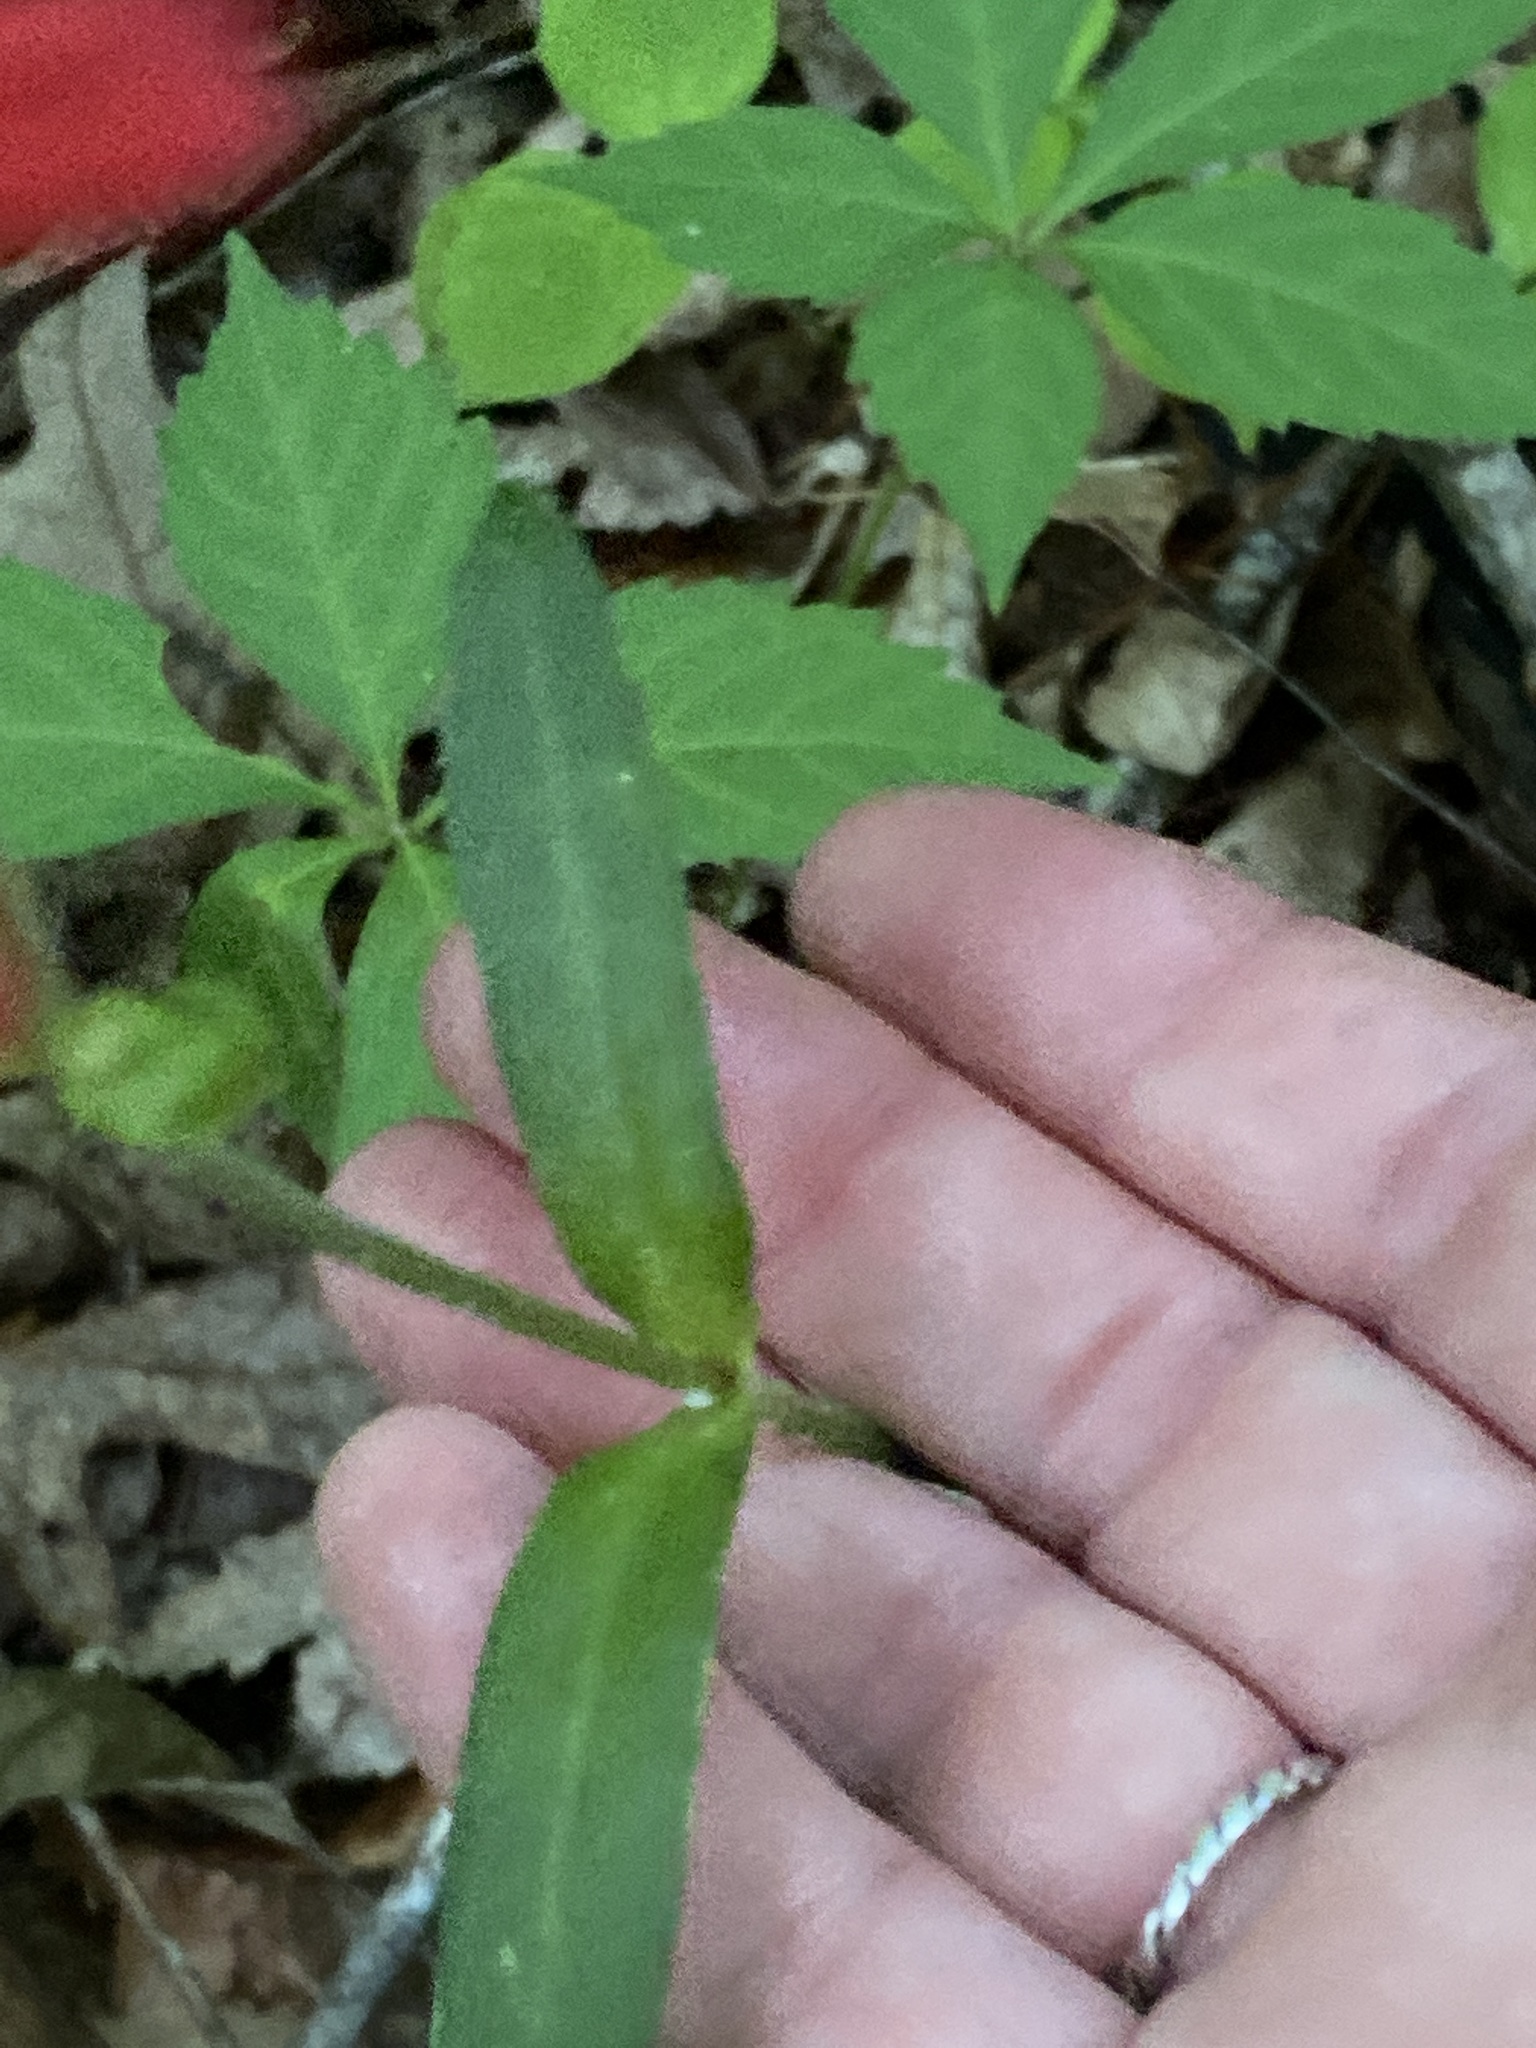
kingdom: Plantae
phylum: Tracheophyta
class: Magnoliopsida
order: Caryophyllales
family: Caryophyllaceae
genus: Silene
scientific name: Silene virginica
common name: Fire-pink
